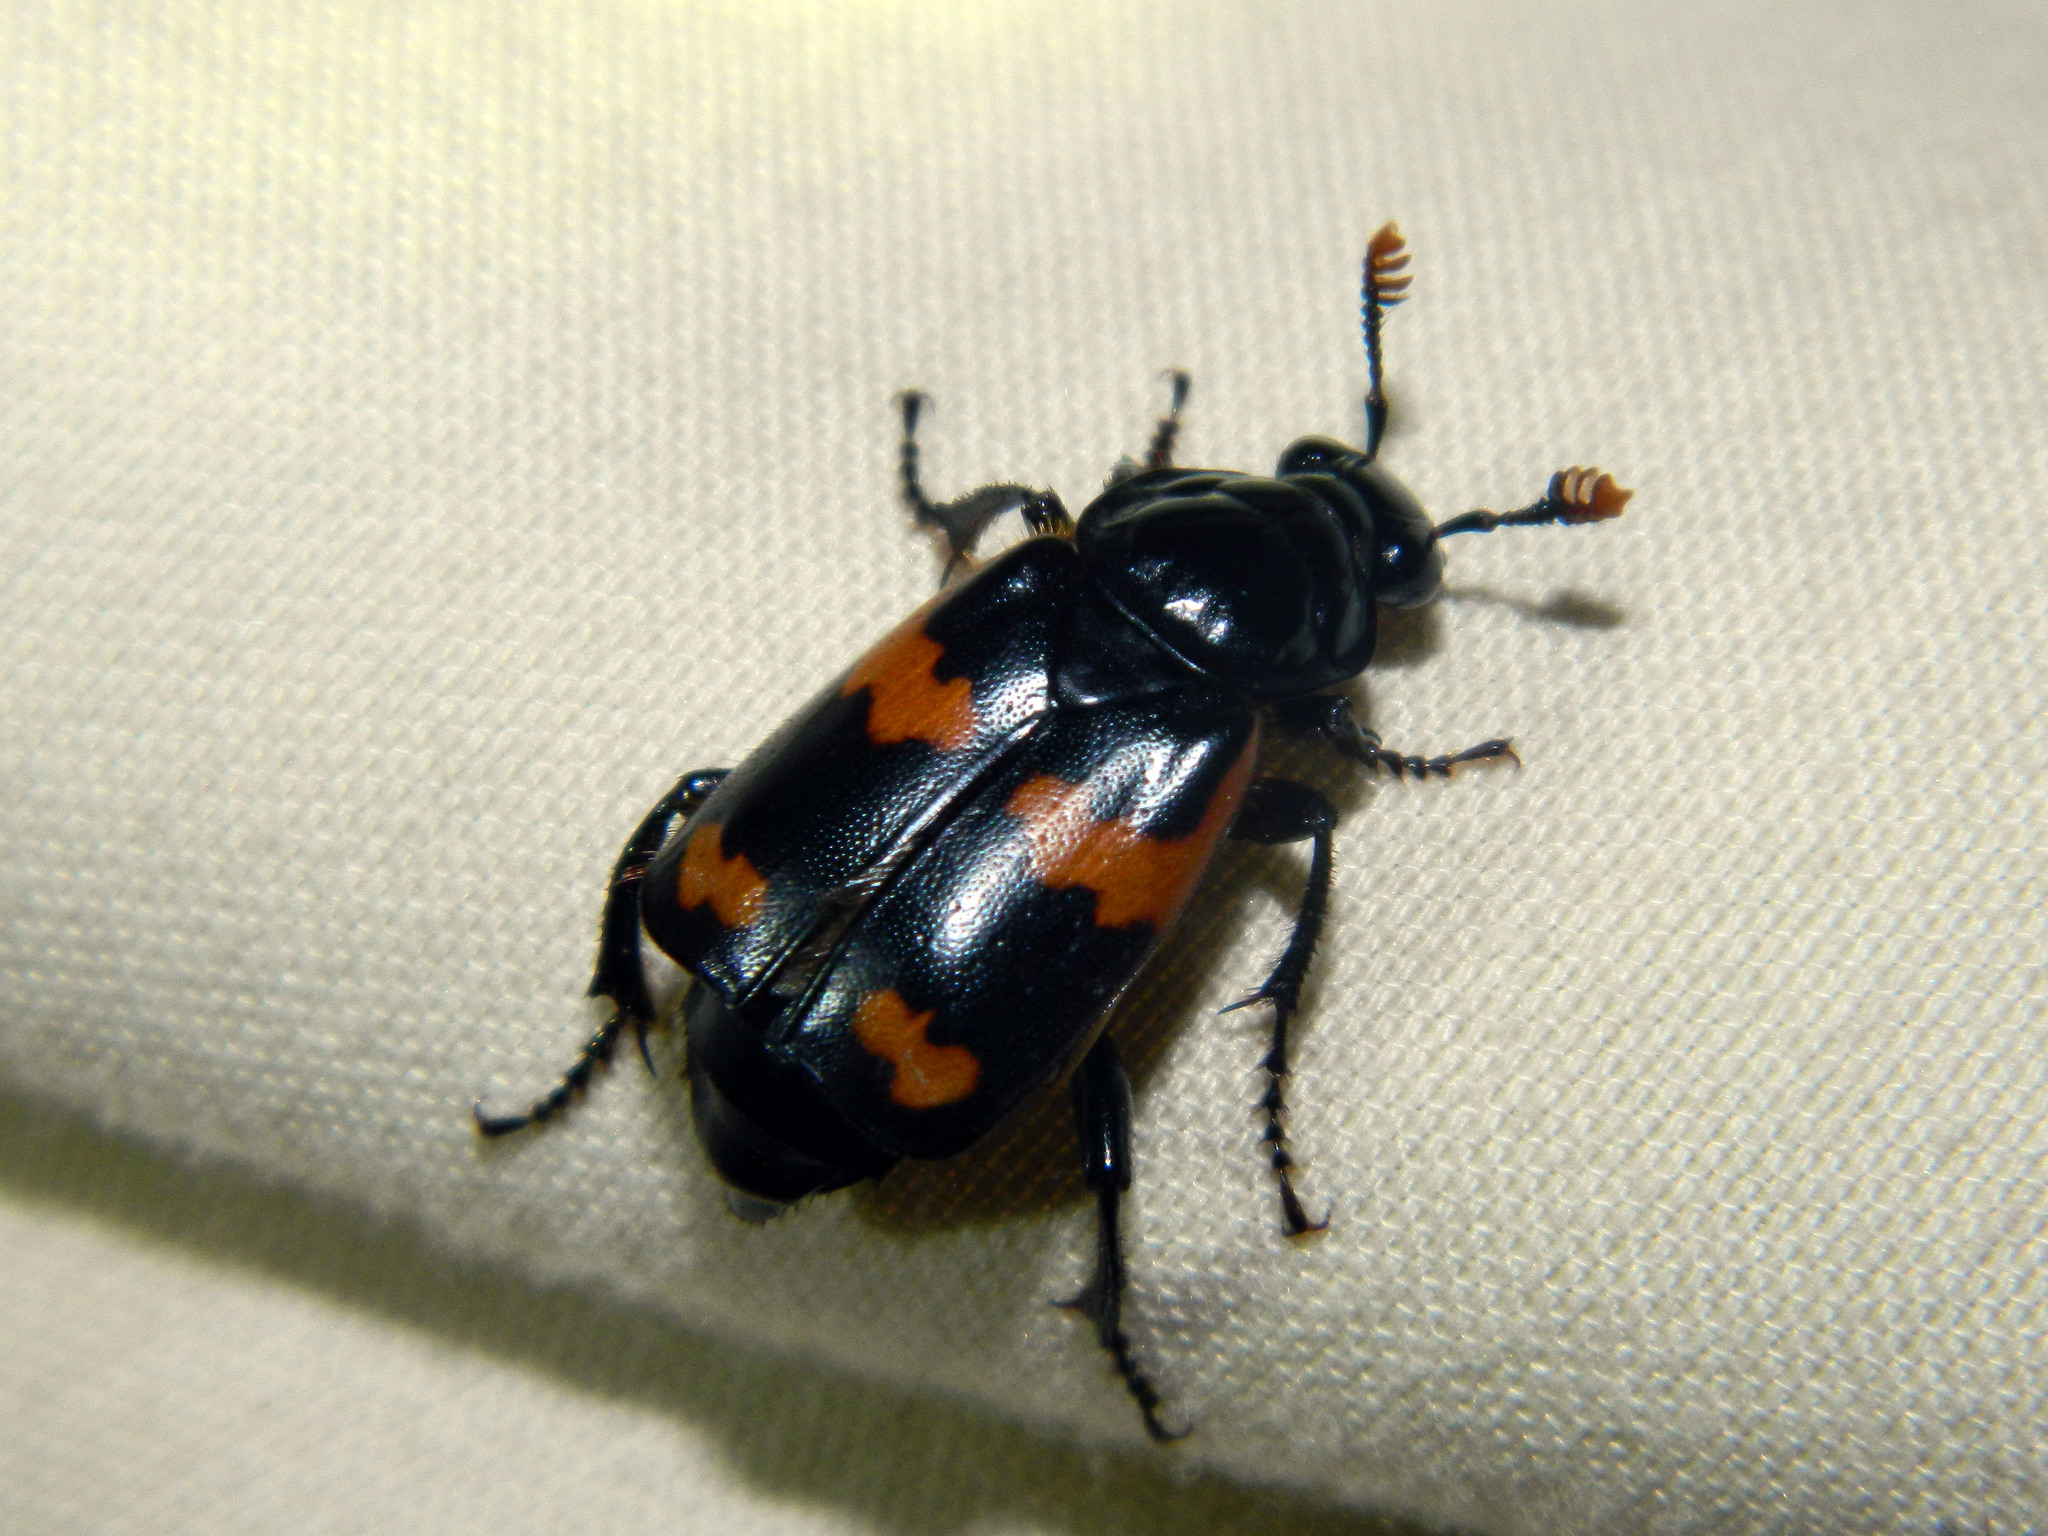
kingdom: Animalia
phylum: Arthropoda
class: Insecta
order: Coleoptera
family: Staphylinidae
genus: Nicrophorus
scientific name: Nicrophorus sayi
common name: Say's burying beetle
